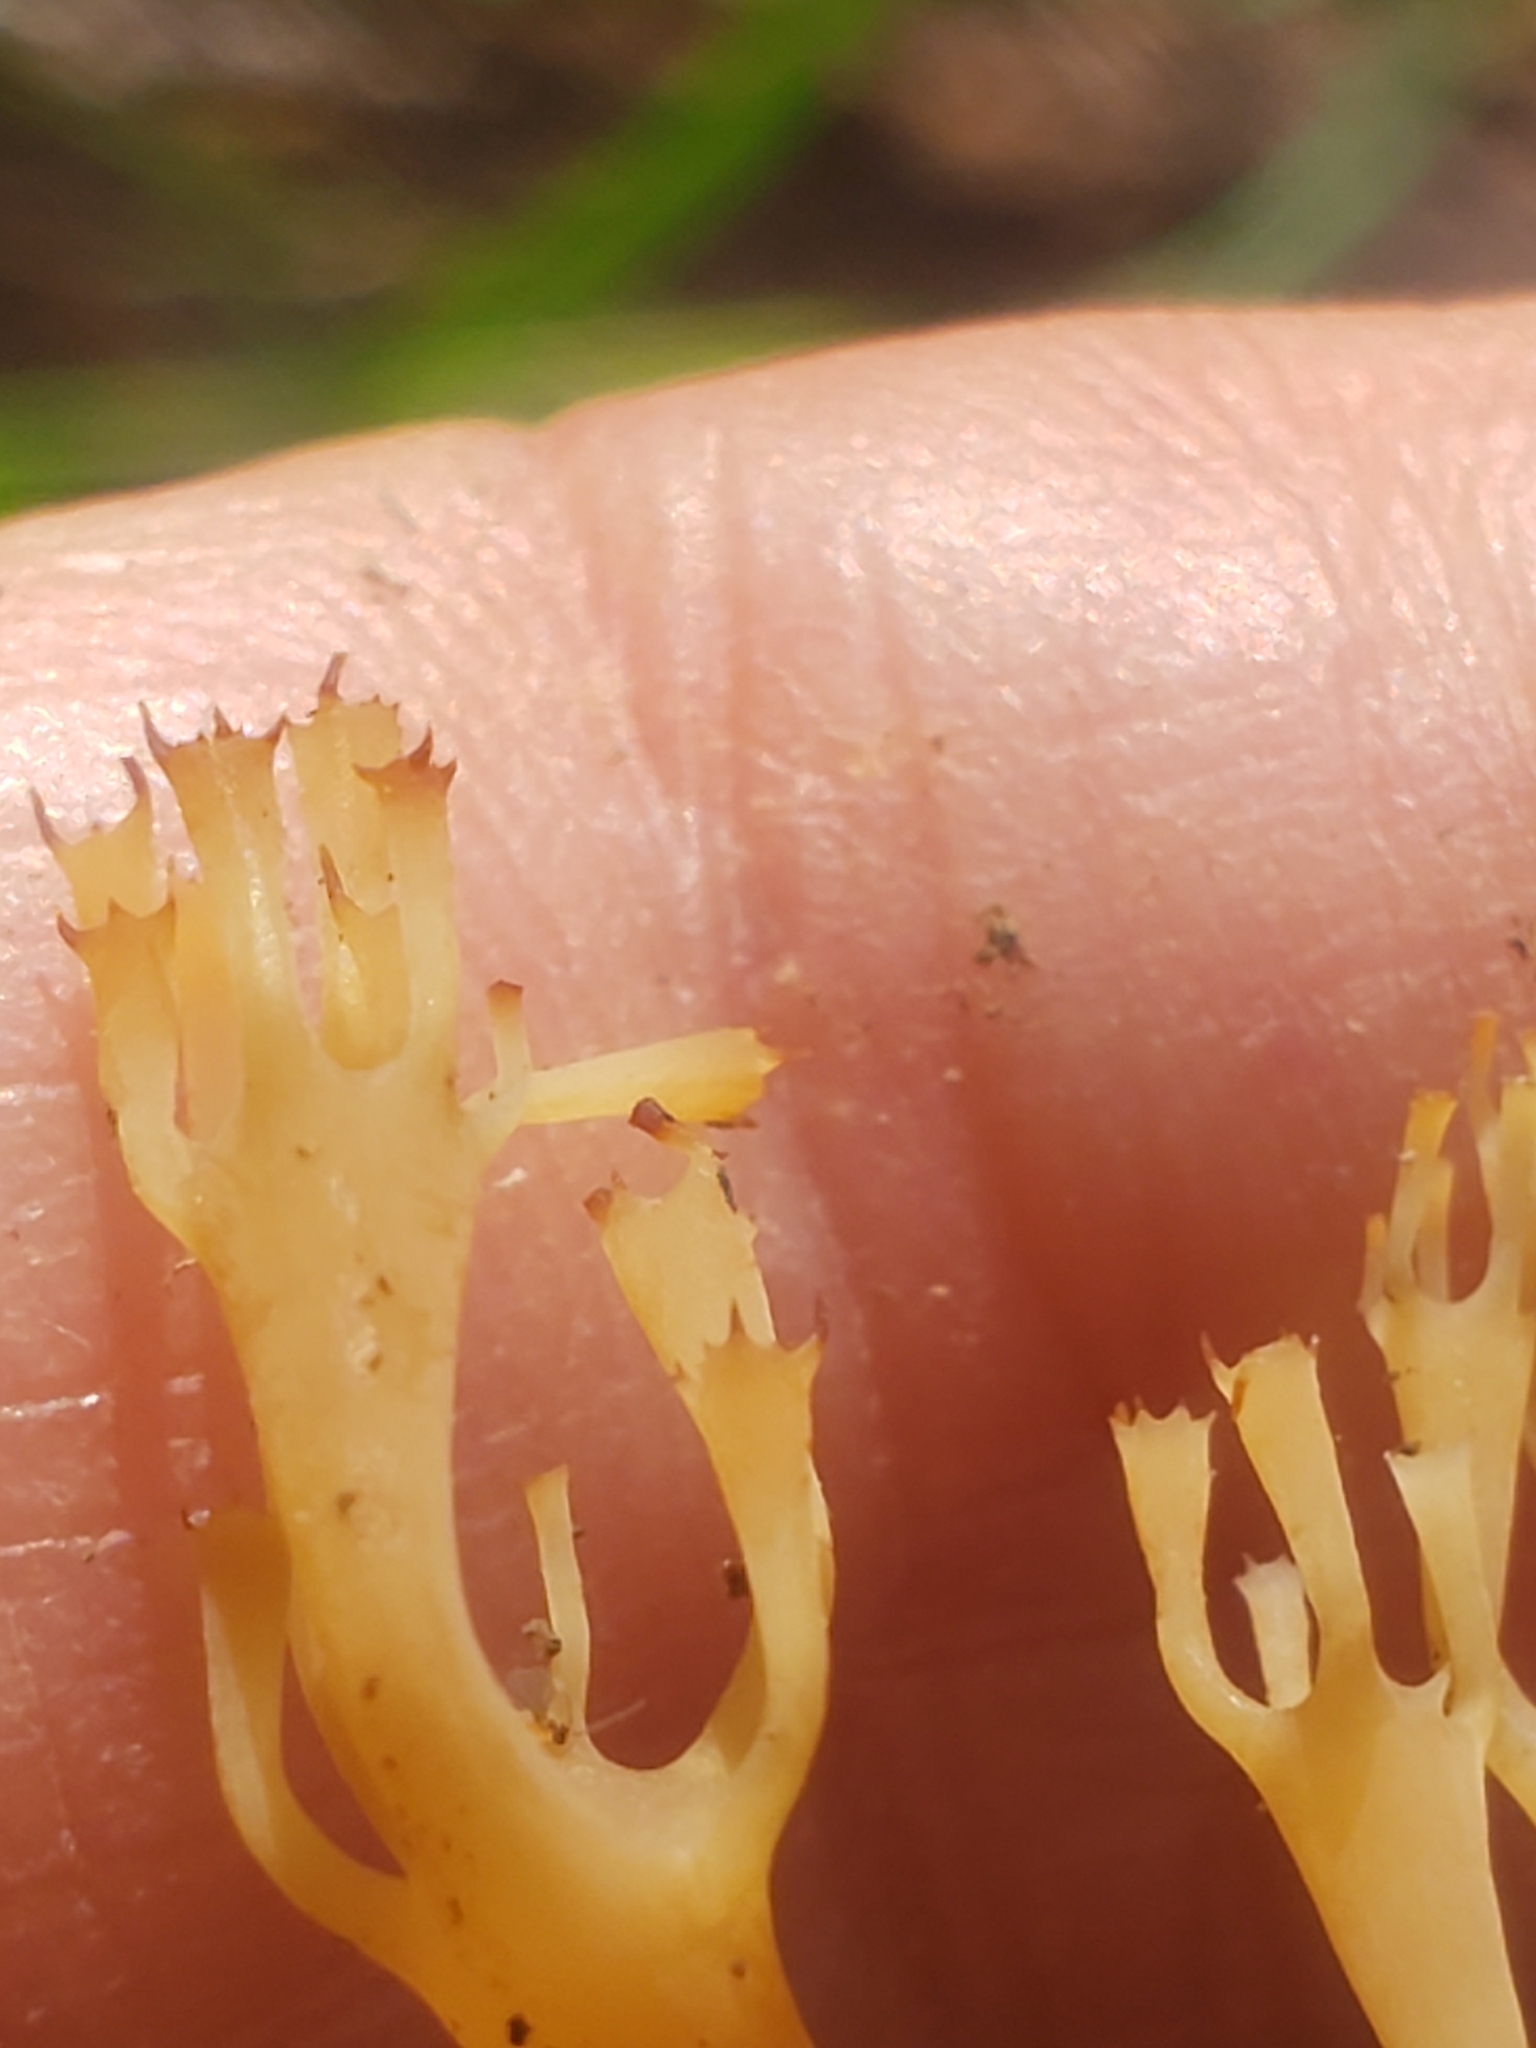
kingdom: Fungi
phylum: Basidiomycota
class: Agaricomycetes
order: Russulales
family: Auriscalpiaceae
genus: Artomyces
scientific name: Artomyces pyxidatus
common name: Crown-tipped coral fungus
